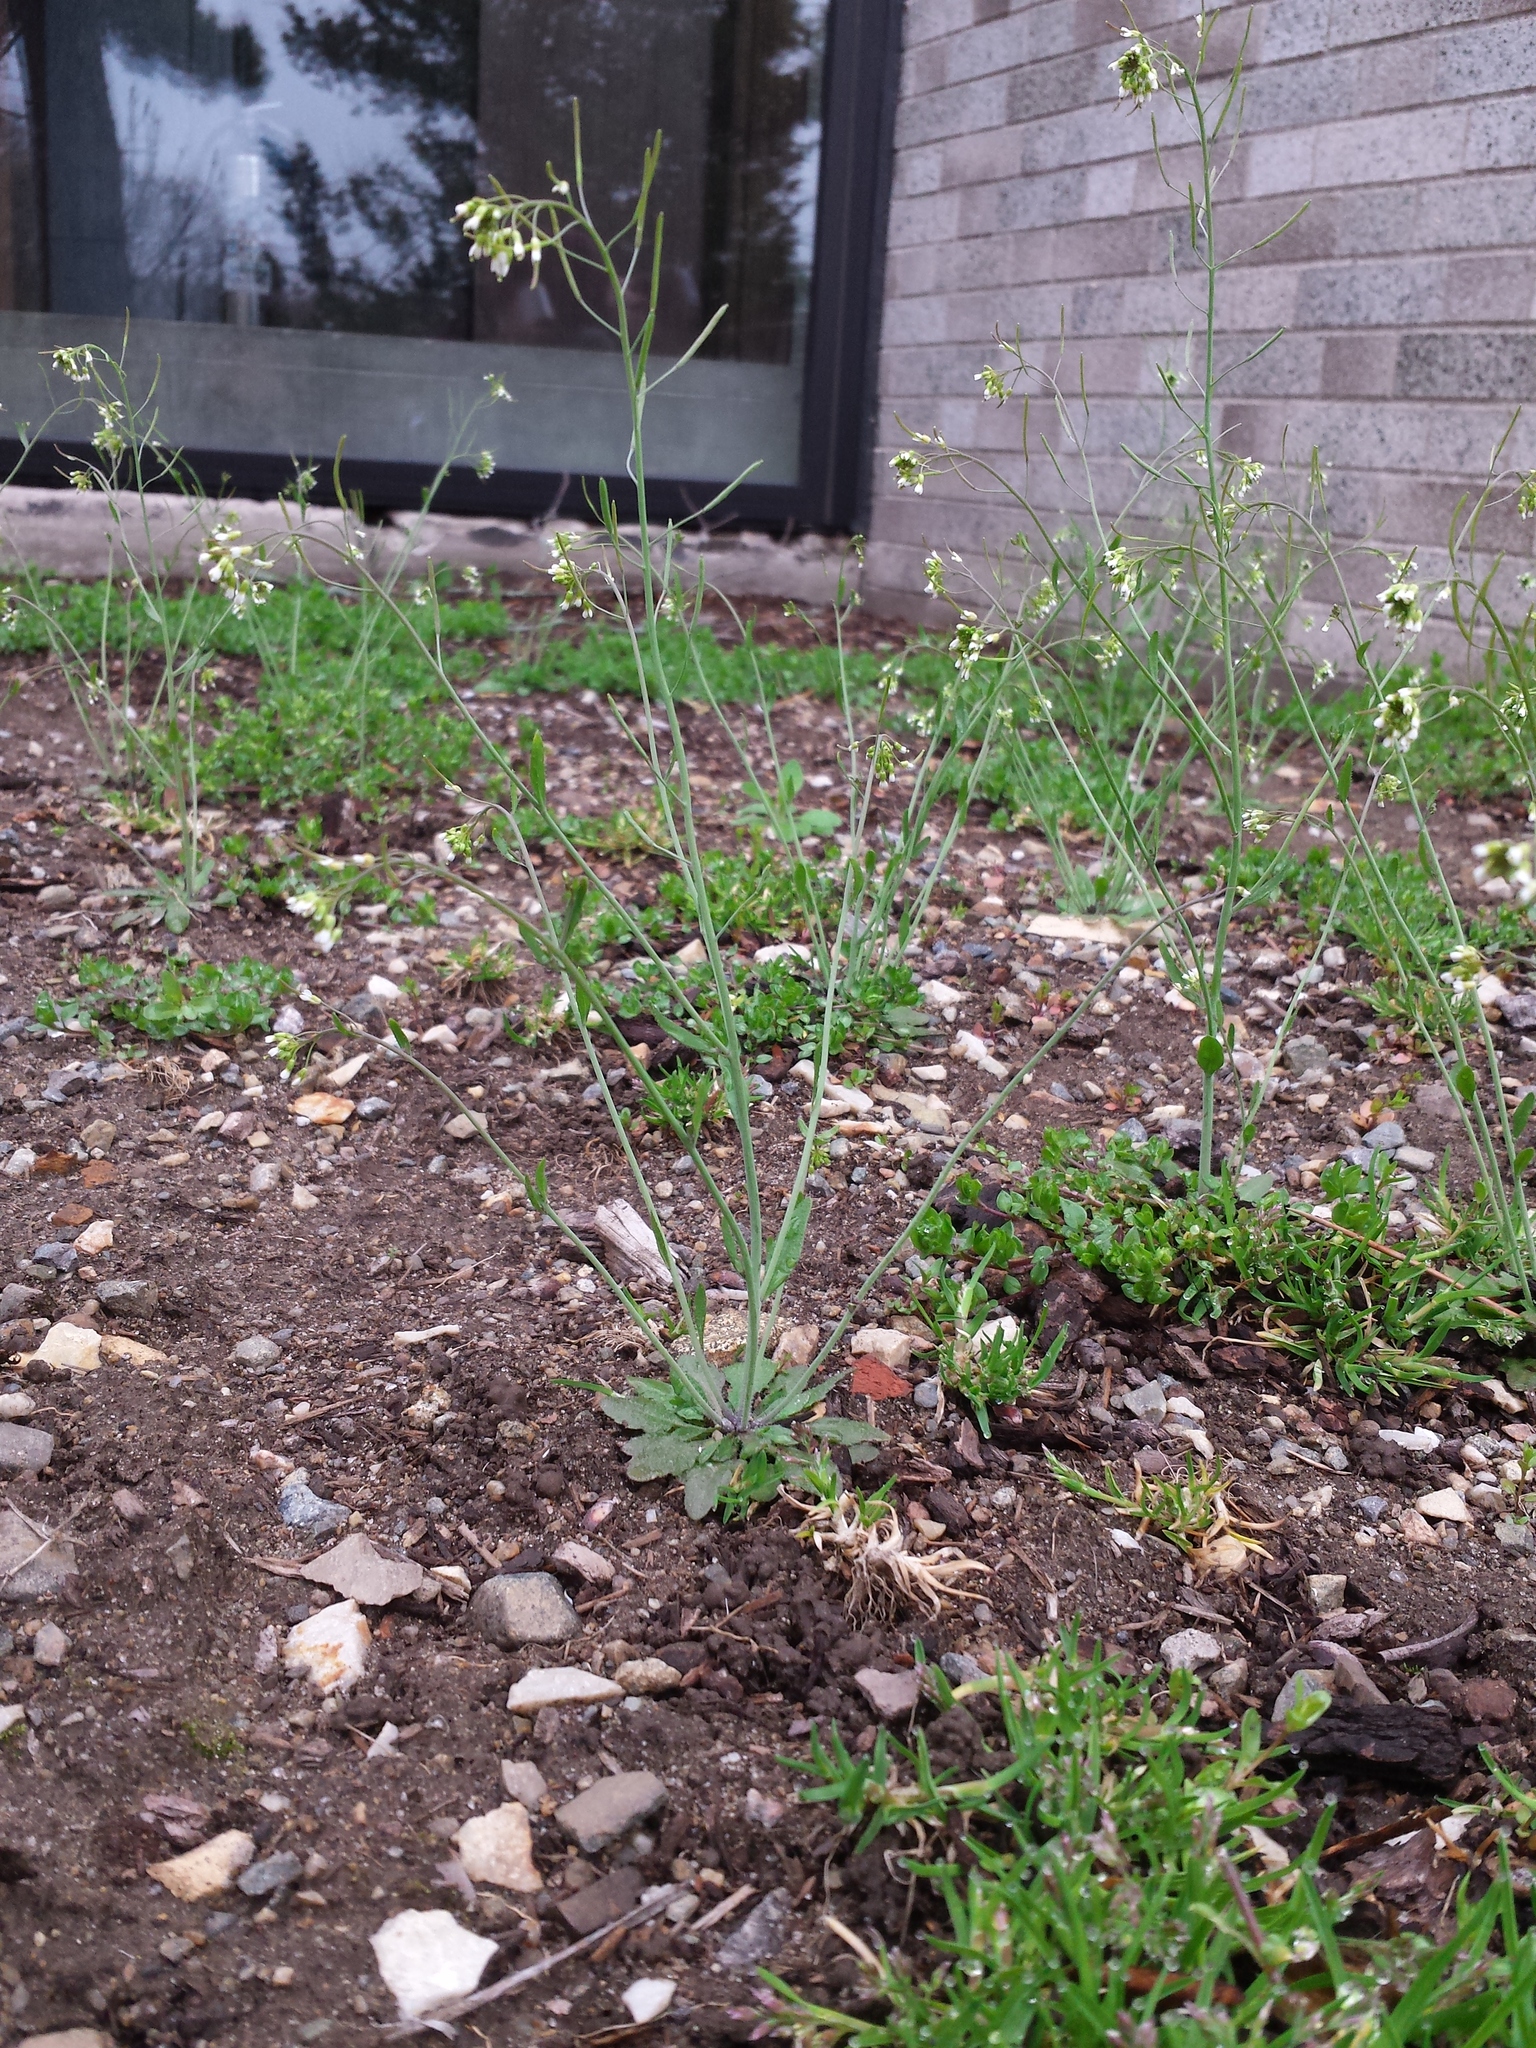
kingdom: Plantae
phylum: Tracheophyta
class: Magnoliopsida
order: Brassicales
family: Brassicaceae
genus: Arabidopsis
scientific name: Arabidopsis thaliana
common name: Thale cress
